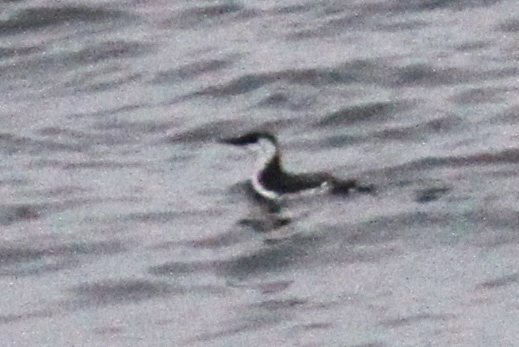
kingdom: Animalia
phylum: Chordata
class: Aves
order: Charadriiformes
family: Alcidae
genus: Uria
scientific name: Uria aalge
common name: Common murre
